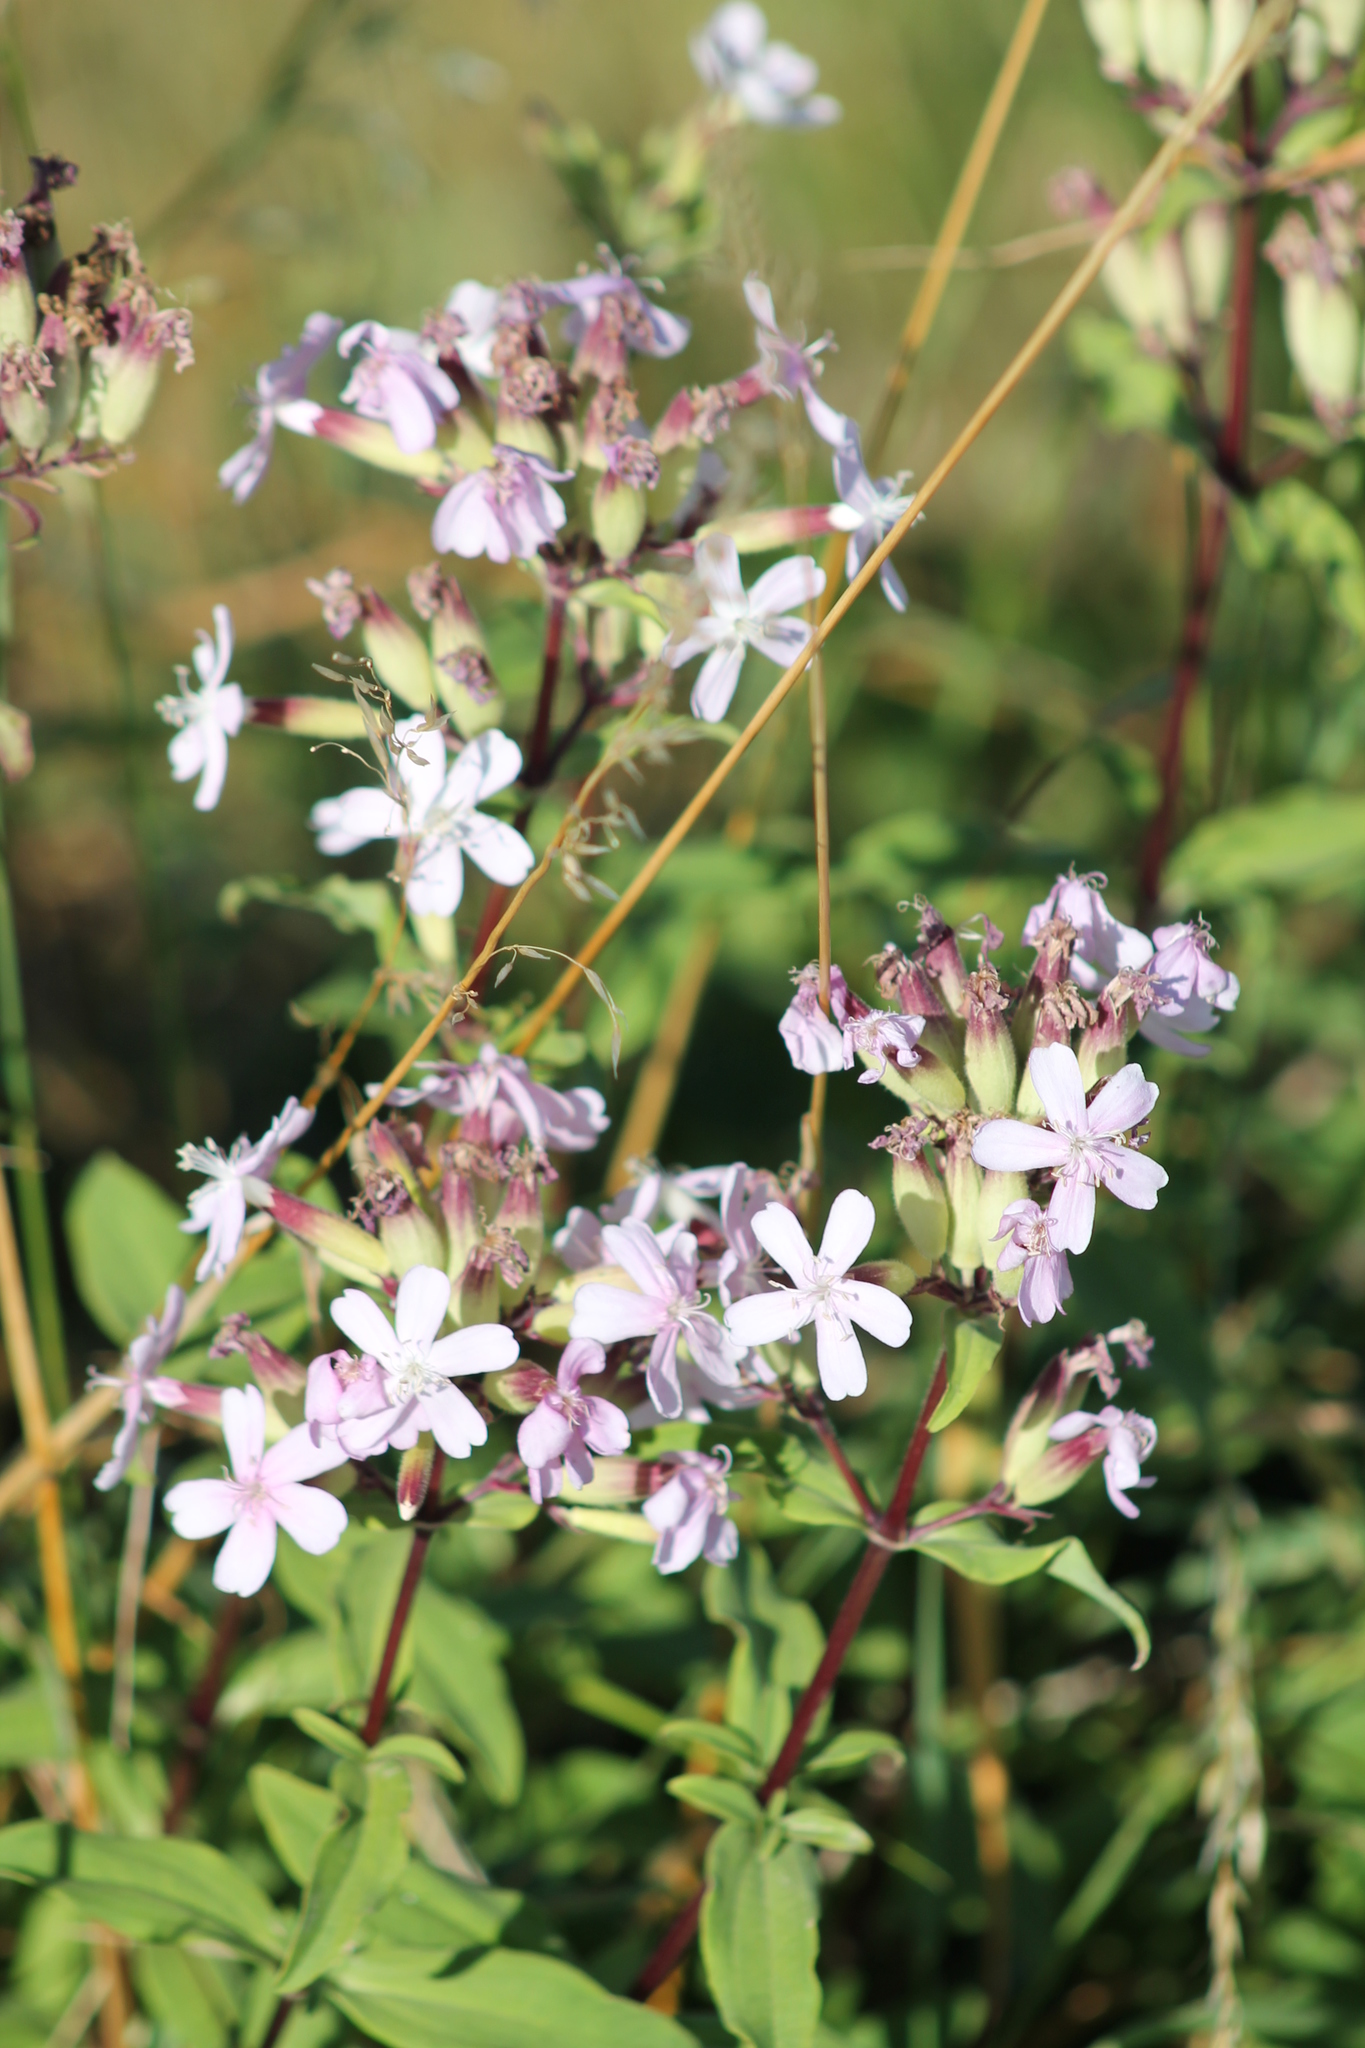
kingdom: Plantae
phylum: Tracheophyta
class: Magnoliopsida
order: Caryophyllales
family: Caryophyllaceae
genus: Saponaria
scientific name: Saponaria officinalis
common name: Soapwort
